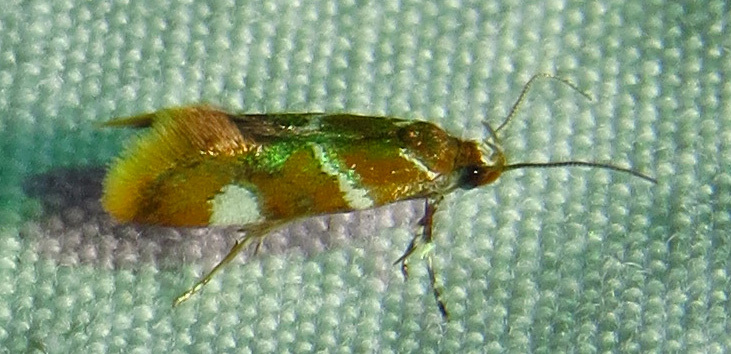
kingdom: Animalia
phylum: Arthropoda
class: Insecta
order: Lepidoptera
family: Oecophoridae
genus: Promalactis
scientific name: Promalactis suzukiella
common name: Moth
